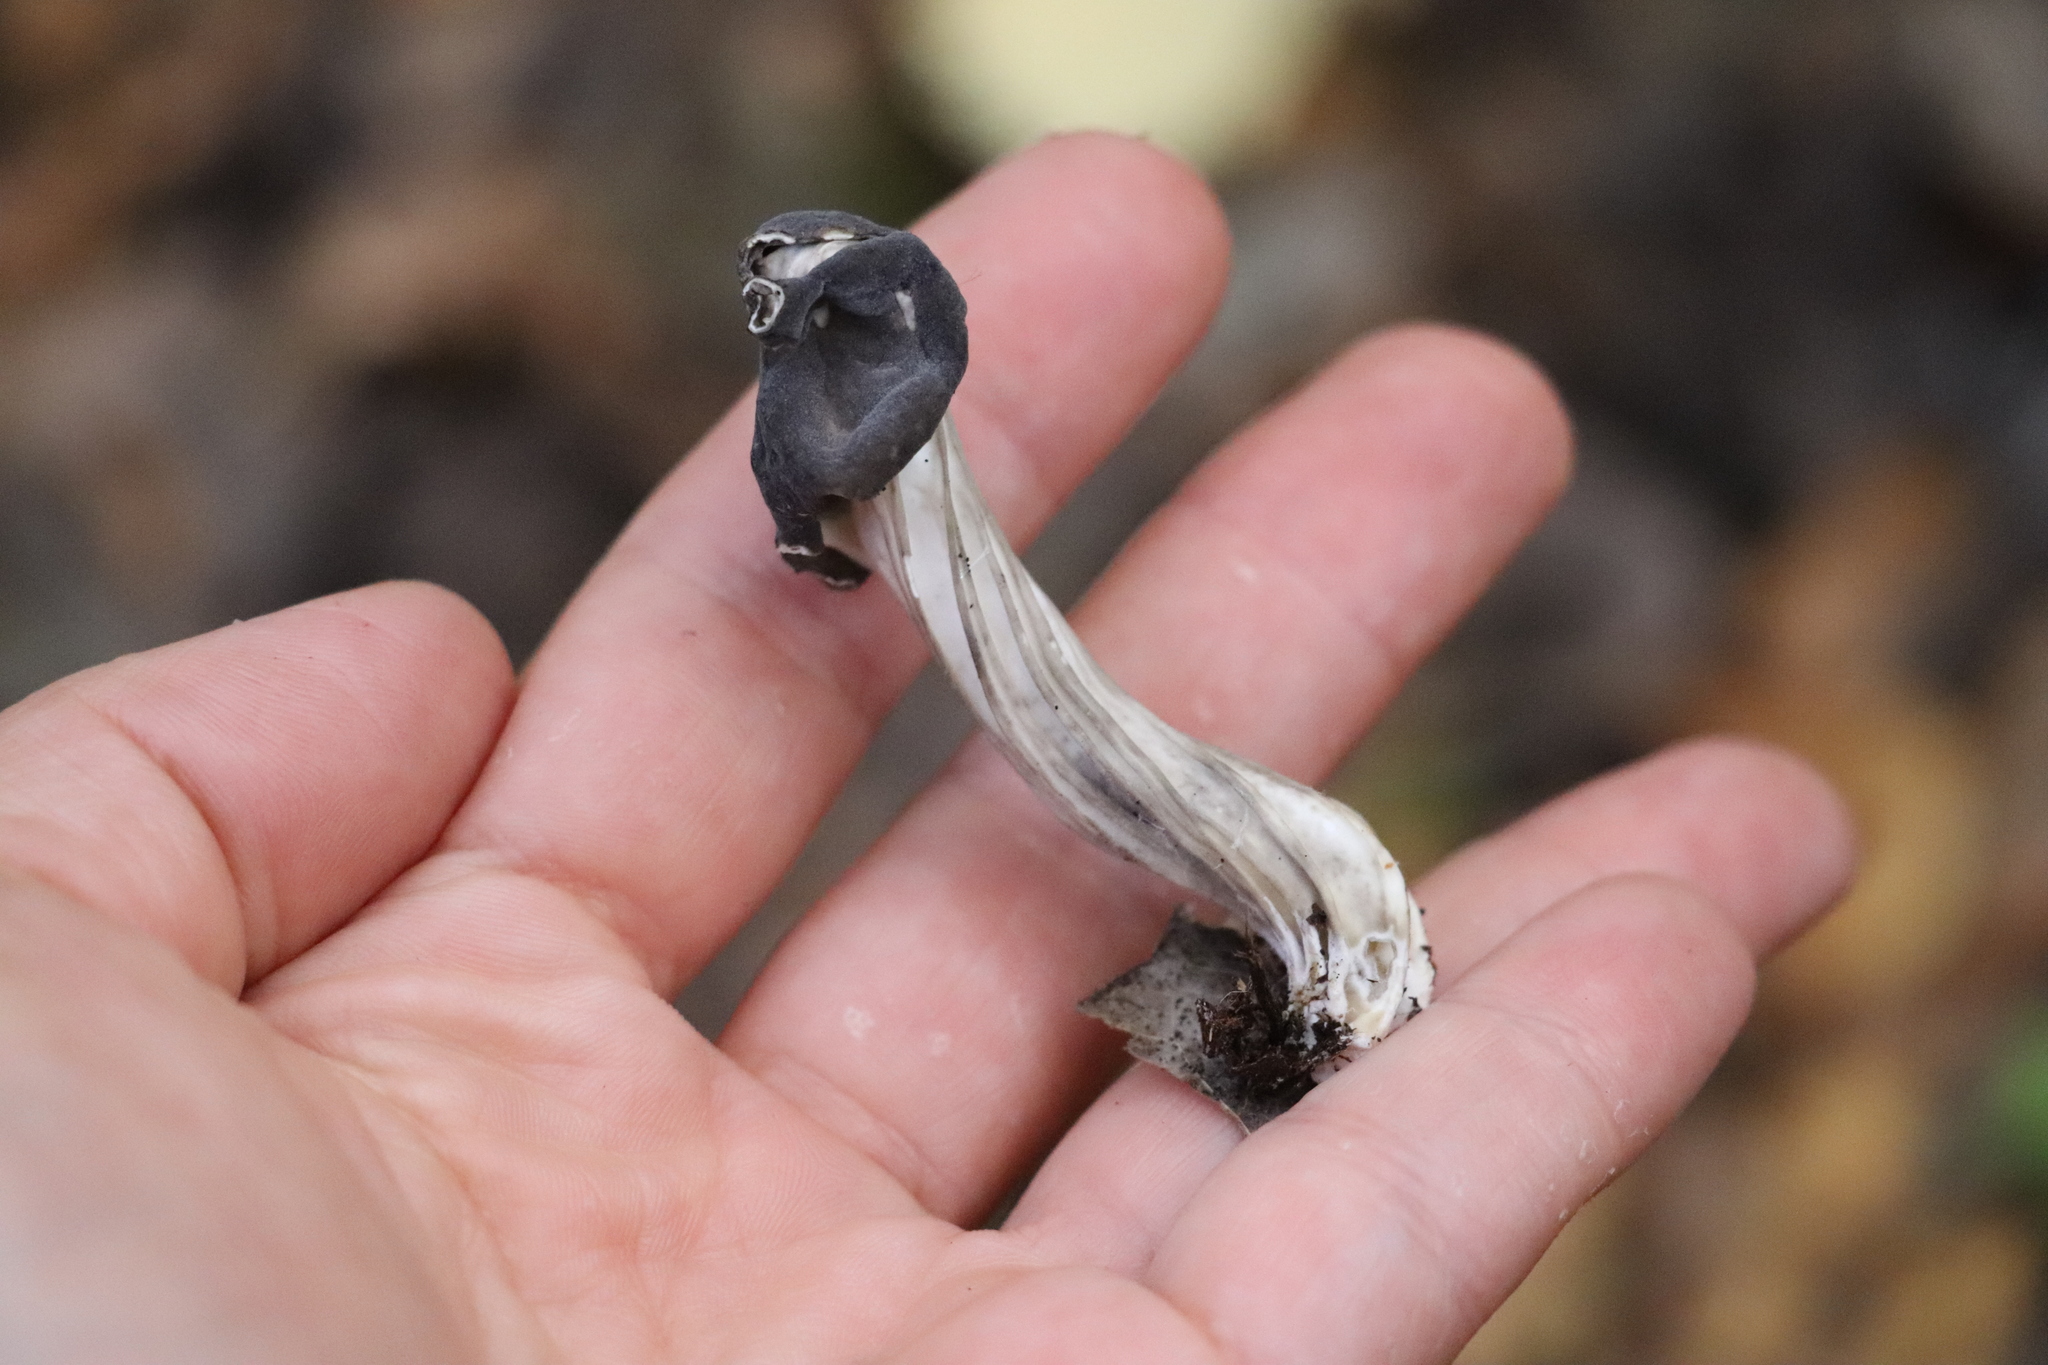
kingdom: Fungi
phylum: Ascomycota
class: Pezizomycetes
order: Pezizales
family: Helvellaceae
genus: Helvella
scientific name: Helvella lacunosa
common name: Elfin saddle
